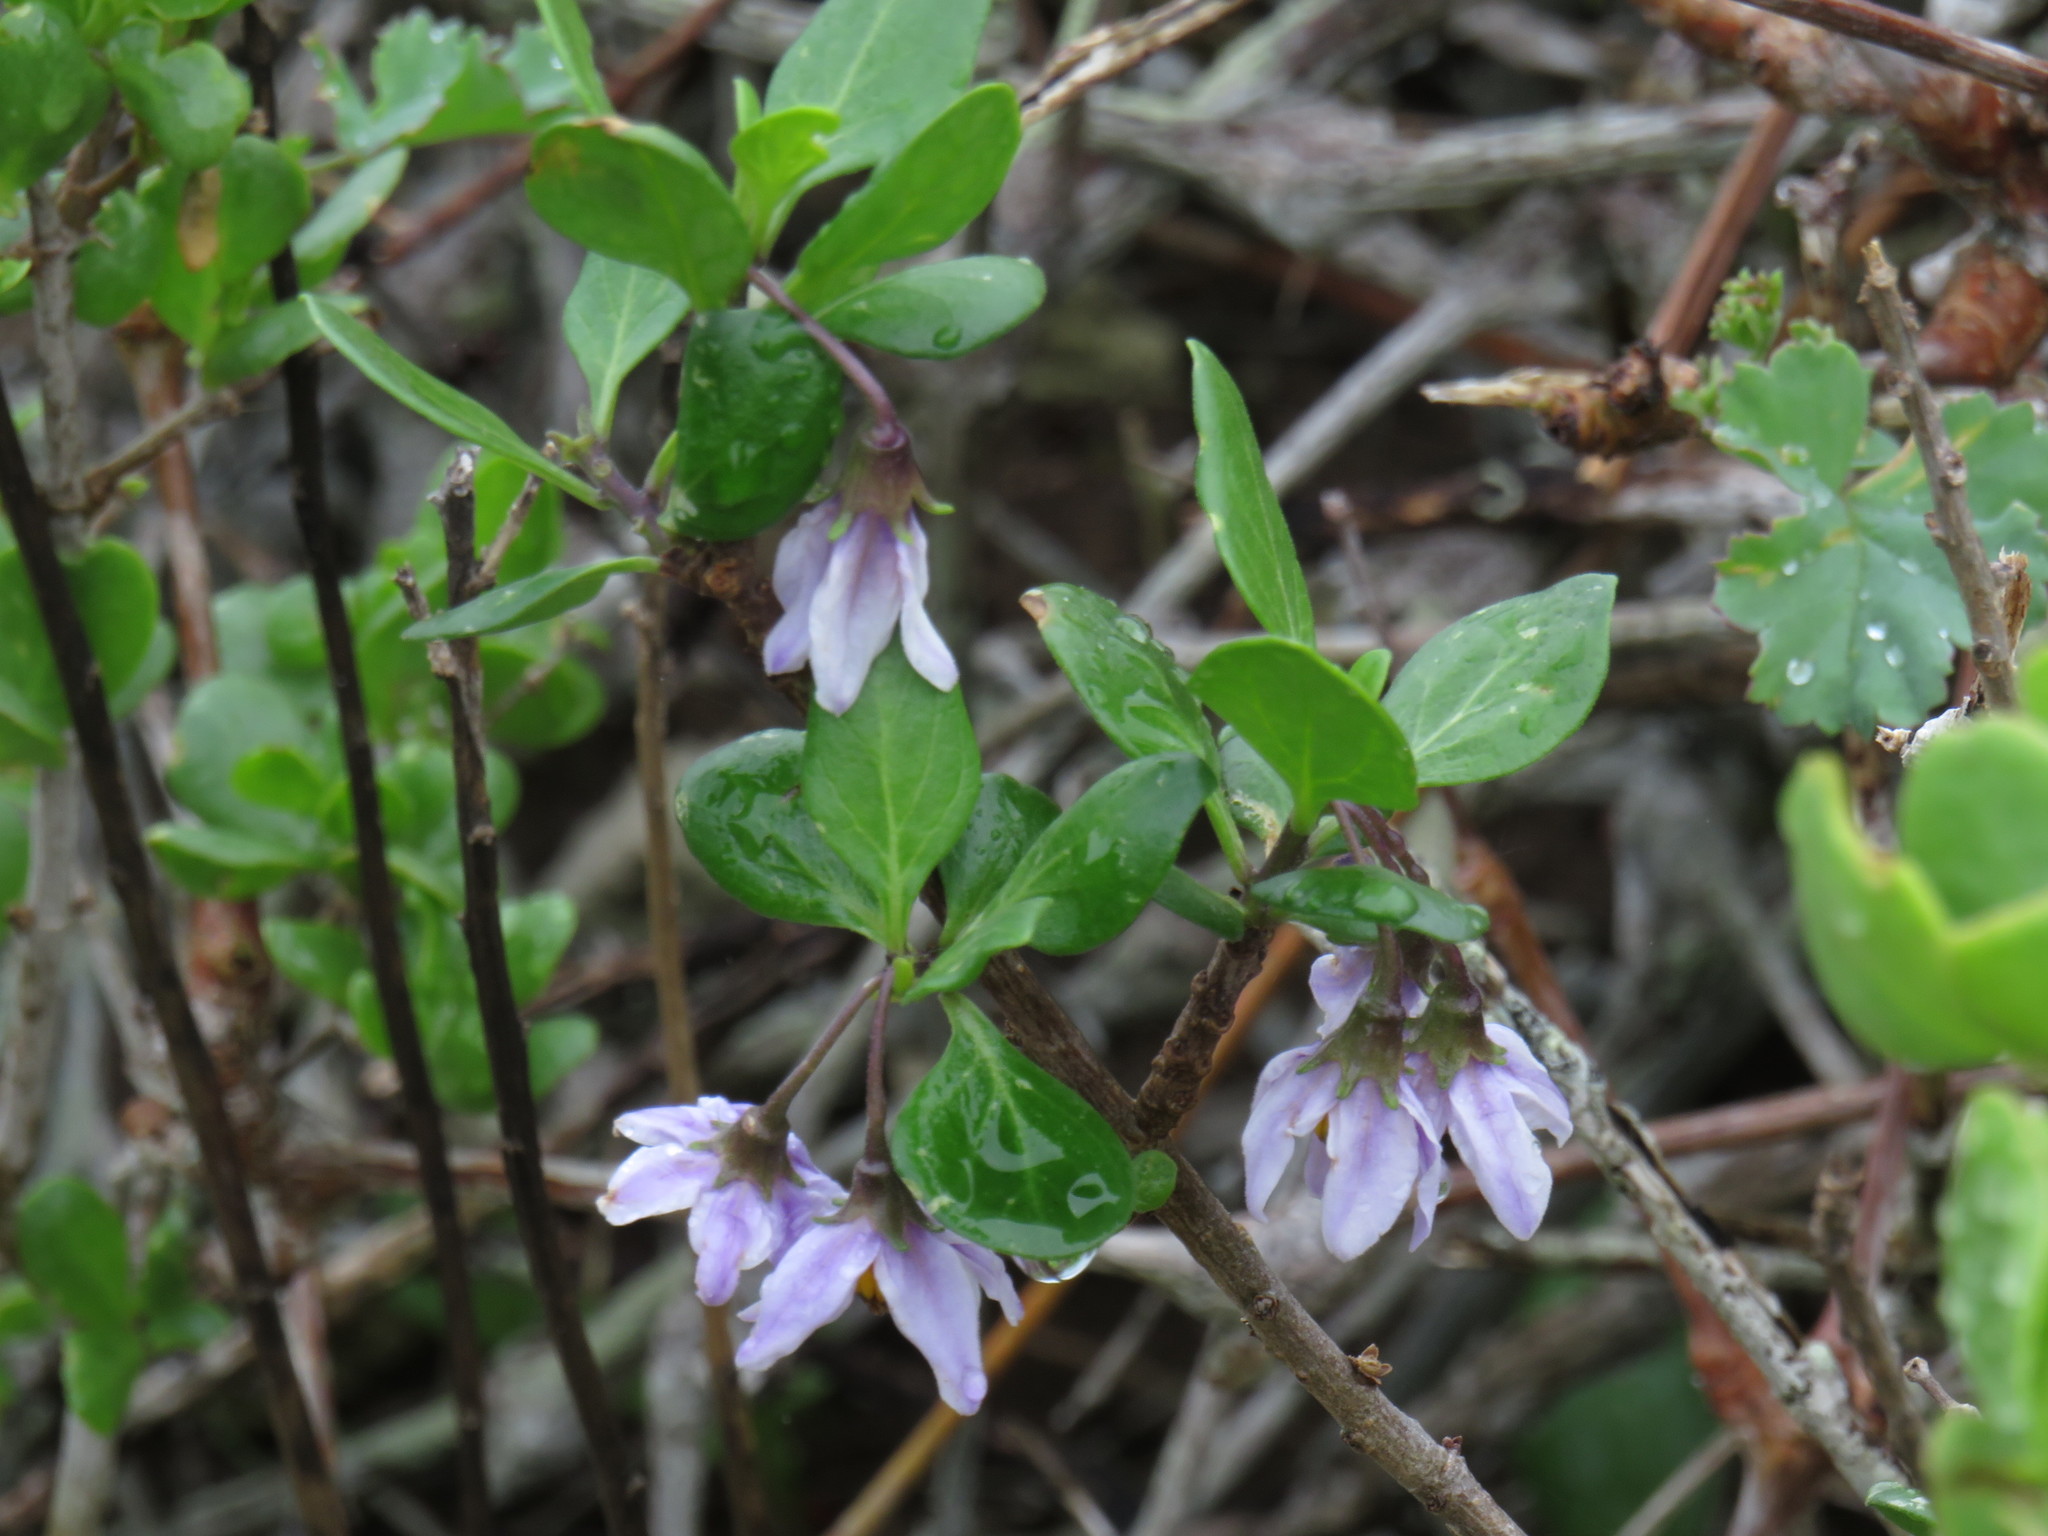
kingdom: Plantae
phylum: Tracheophyta
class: Magnoliopsida
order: Solanales
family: Solanaceae
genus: Solanum
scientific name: Solanum guineense
